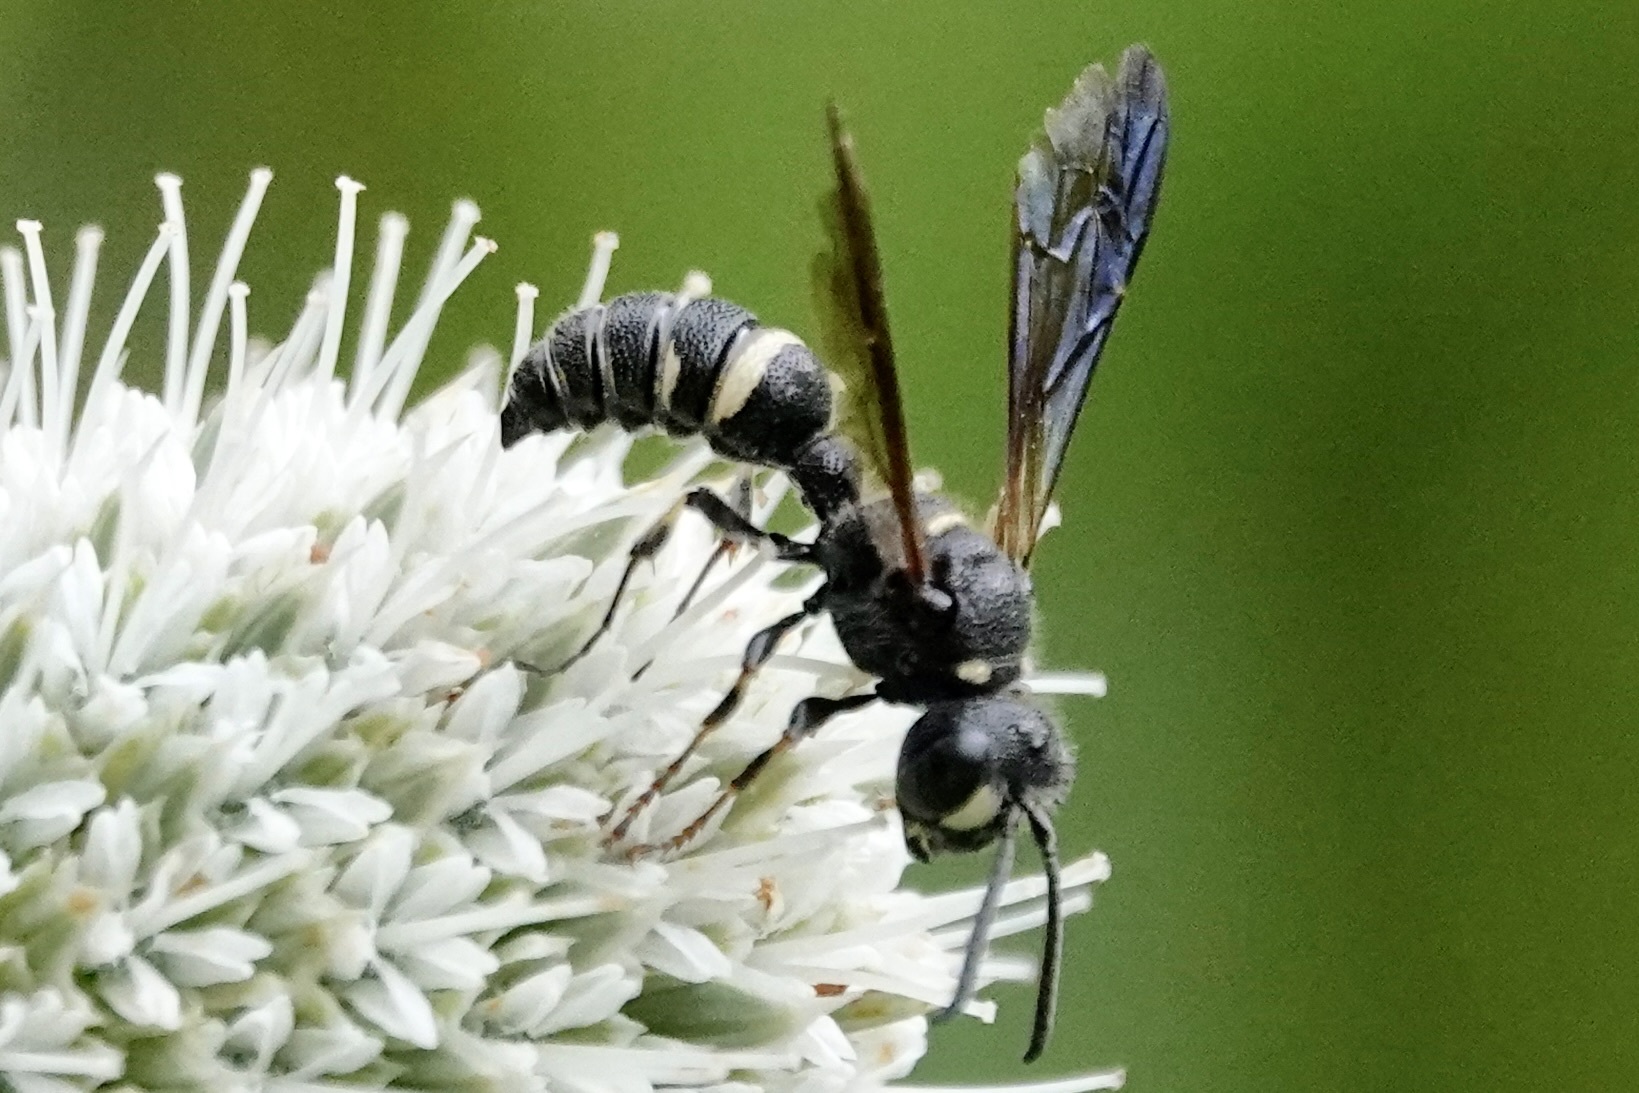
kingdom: Animalia
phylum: Arthropoda
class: Insecta
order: Hymenoptera
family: Crabronidae
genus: Cerceris
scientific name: Cerceris fumipennis
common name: Smokey-winged beetle bandit wasp
